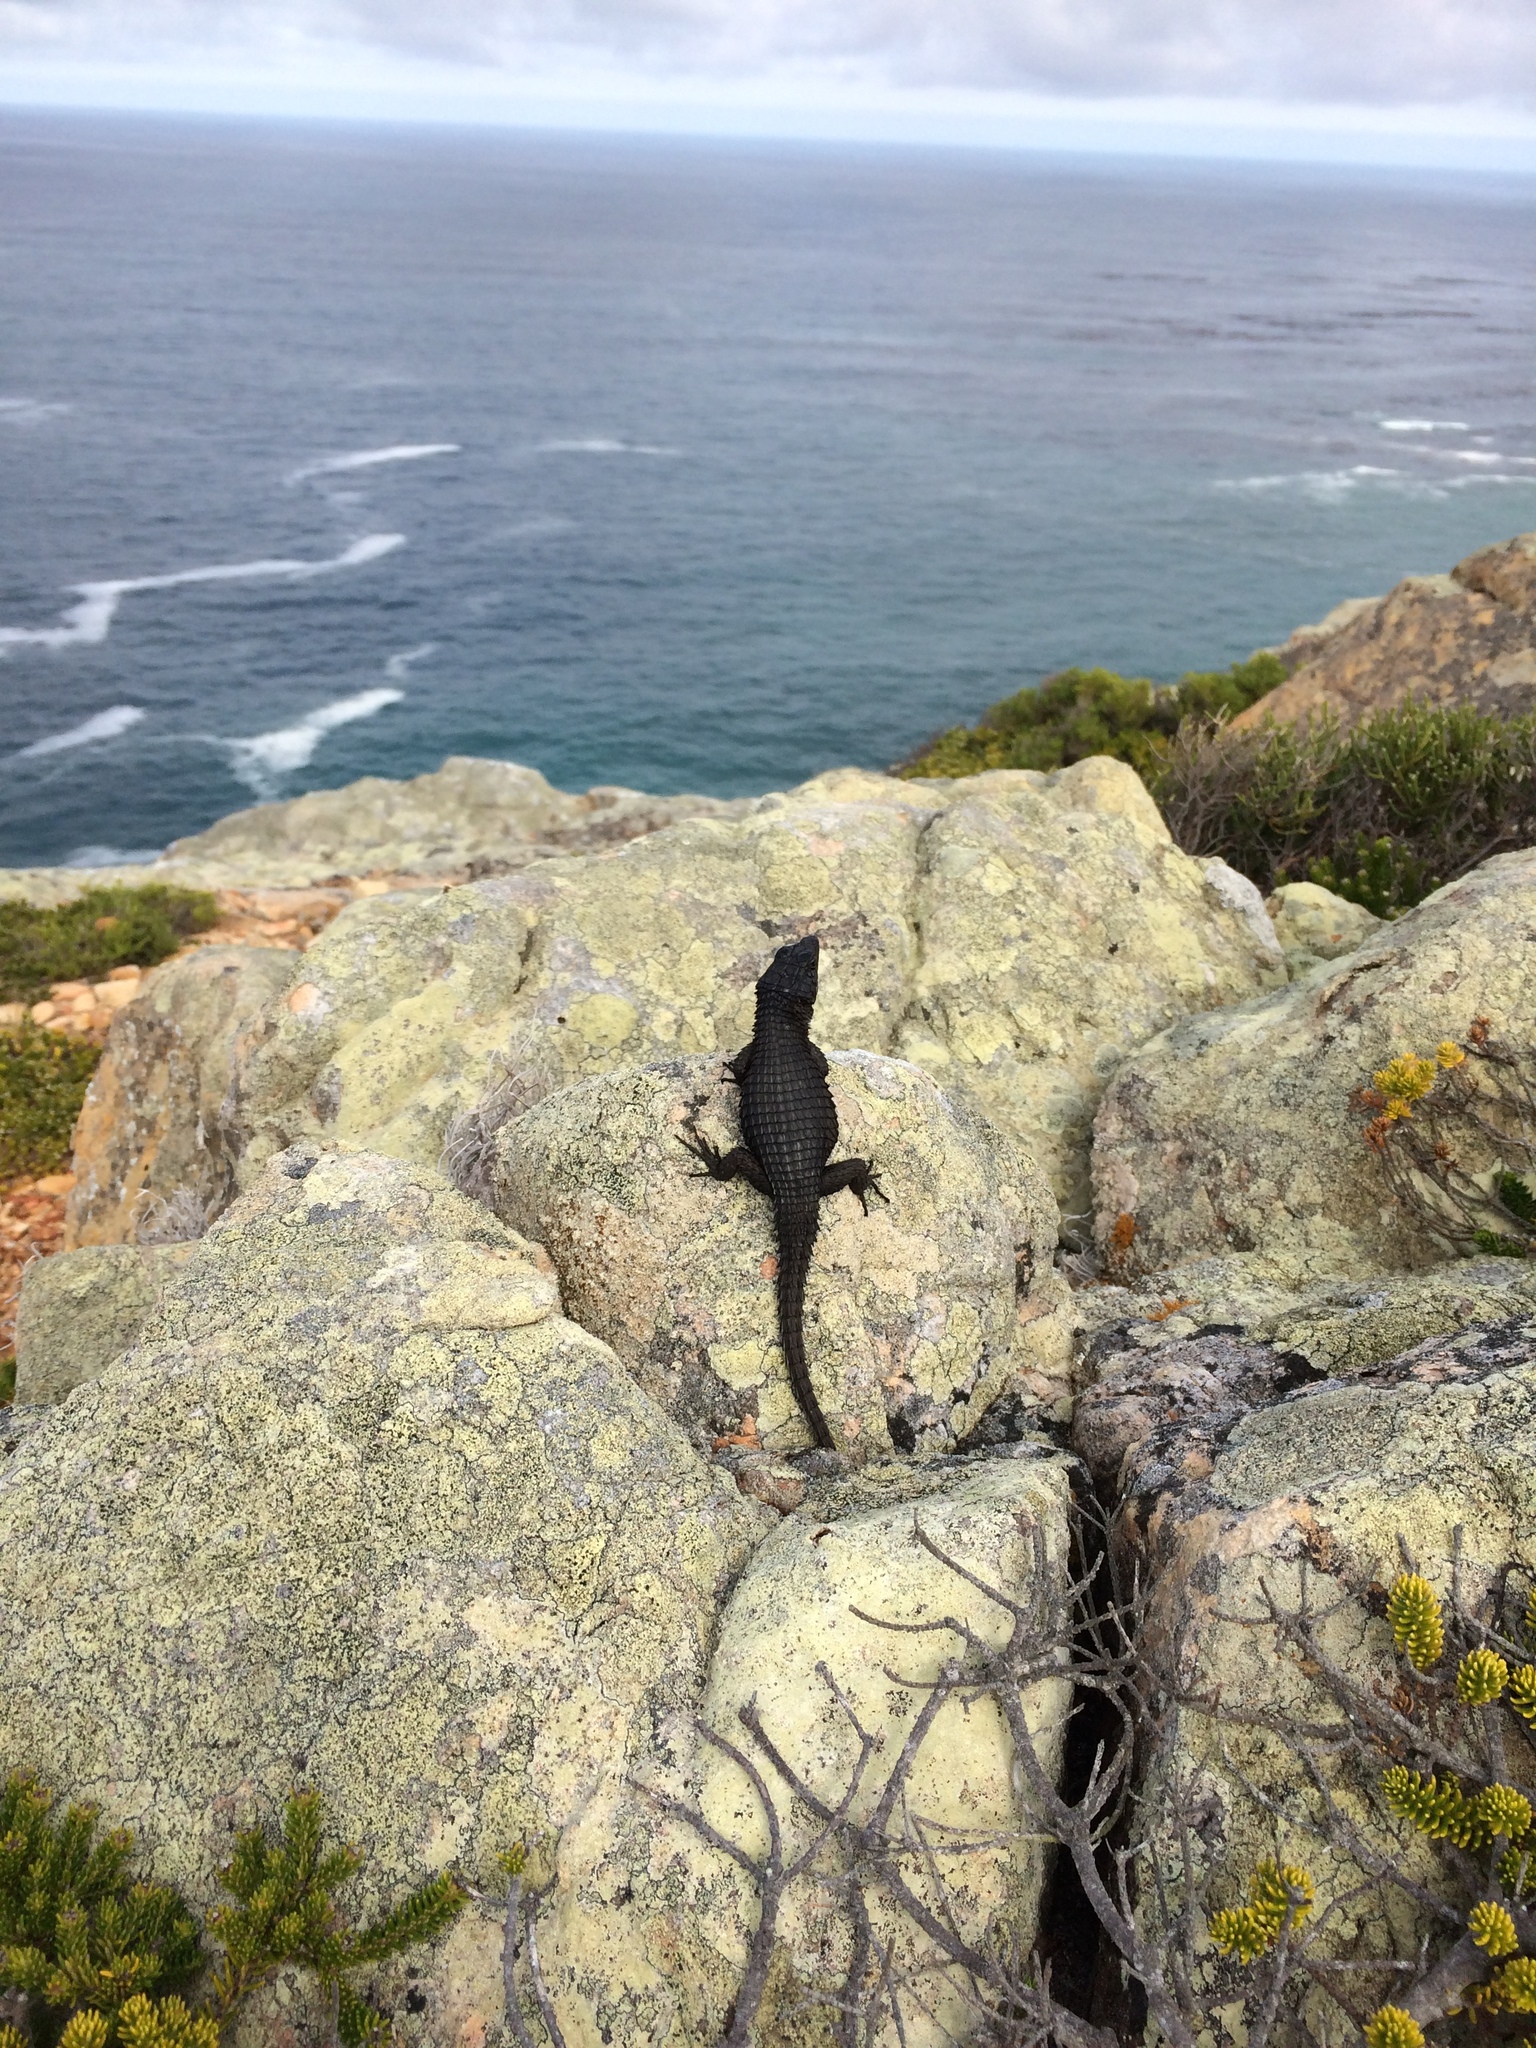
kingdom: Animalia
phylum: Chordata
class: Squamata
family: Cordylidae
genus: Cordylus
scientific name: Cordylus niger
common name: Black girdled lizard
